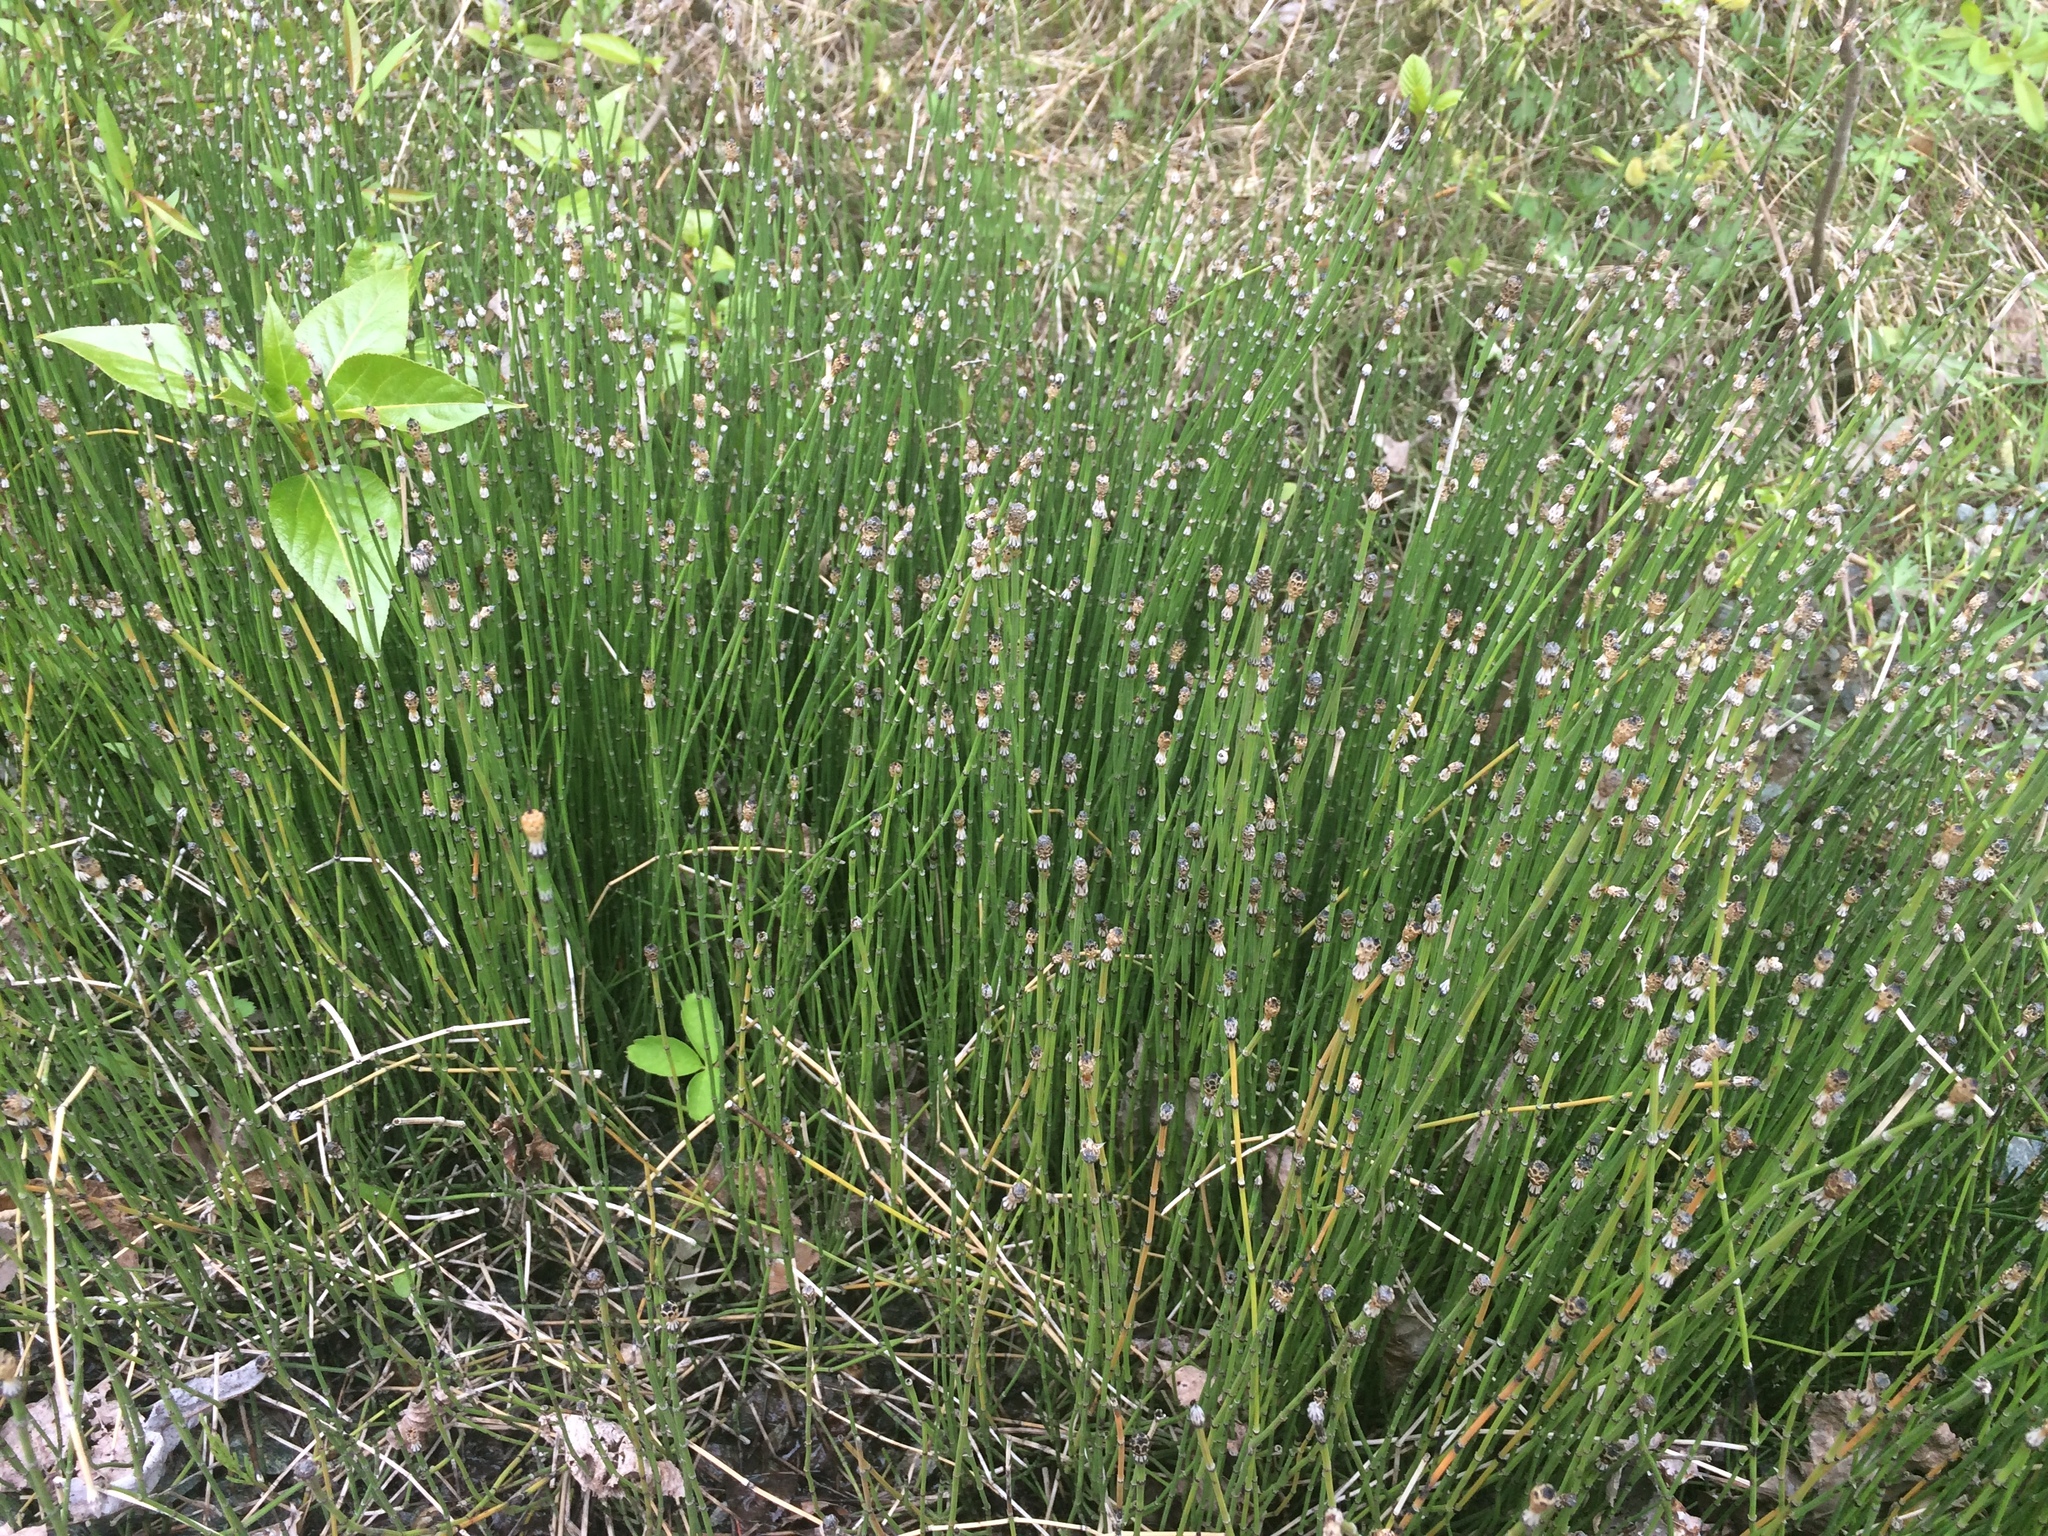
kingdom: Plantae
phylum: Tracheophyta
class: Polypodiopsida
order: Equisetales
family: Equisetaceae
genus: Equisetum
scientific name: Equisetum variegatum
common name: Variegated horsetail
